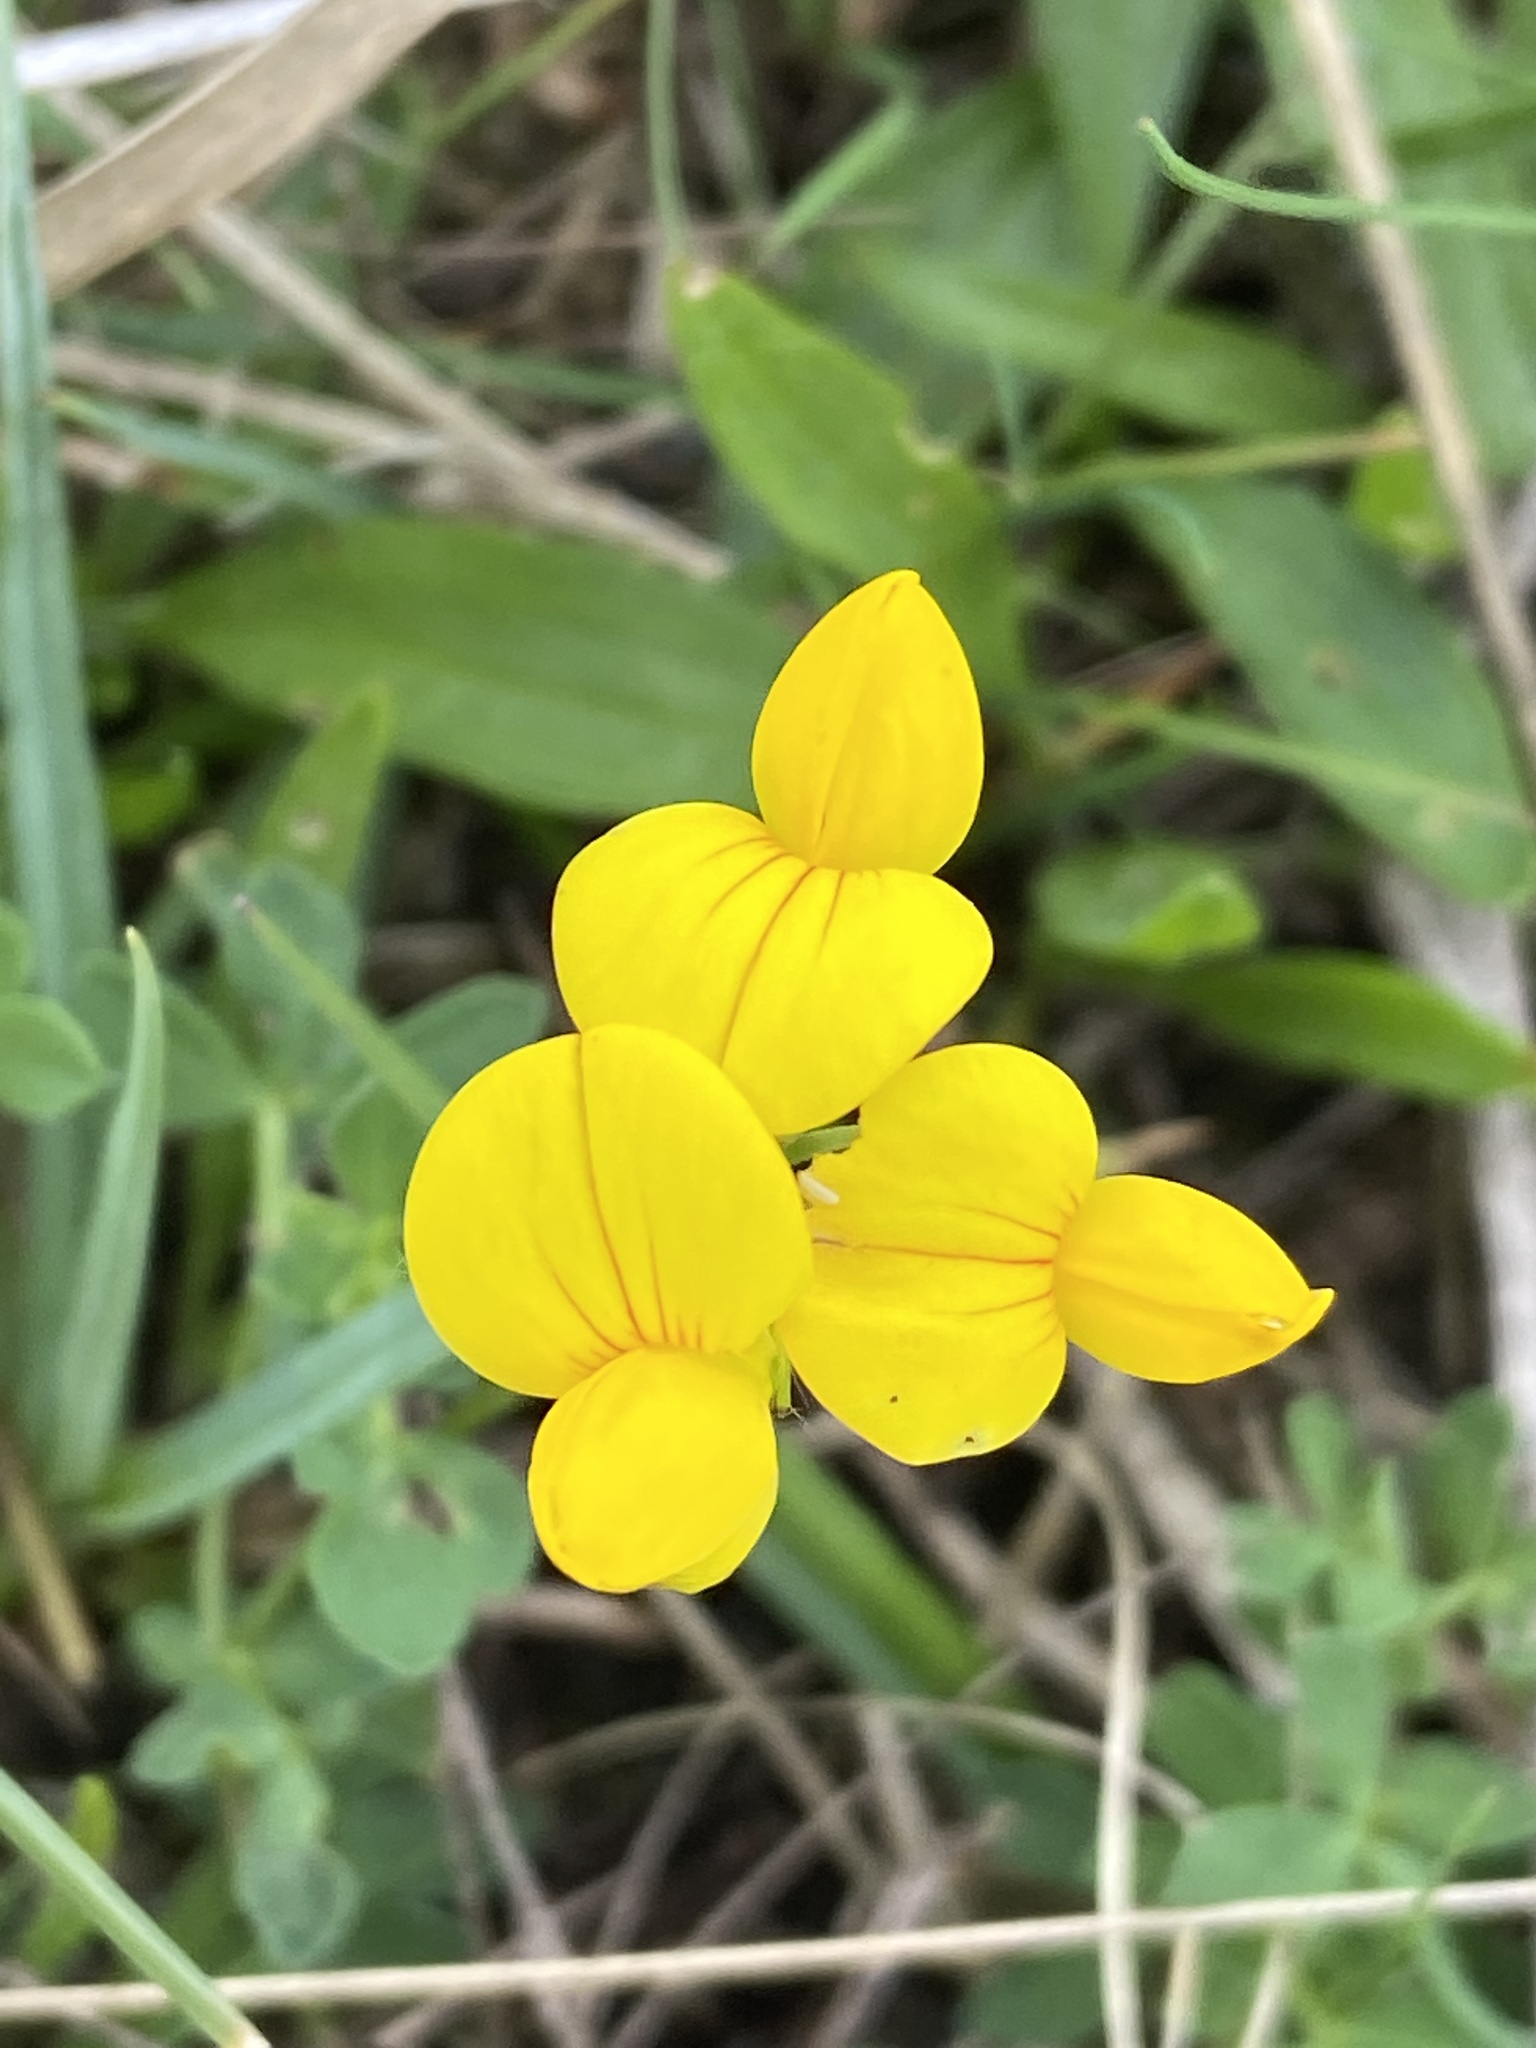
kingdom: Plantae
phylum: Tracheophyta
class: Magnoliopsida
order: Fabales
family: Fabaceae
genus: Lotus
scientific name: Lotus corniculatus
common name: Common bird's-foot-trefoil
